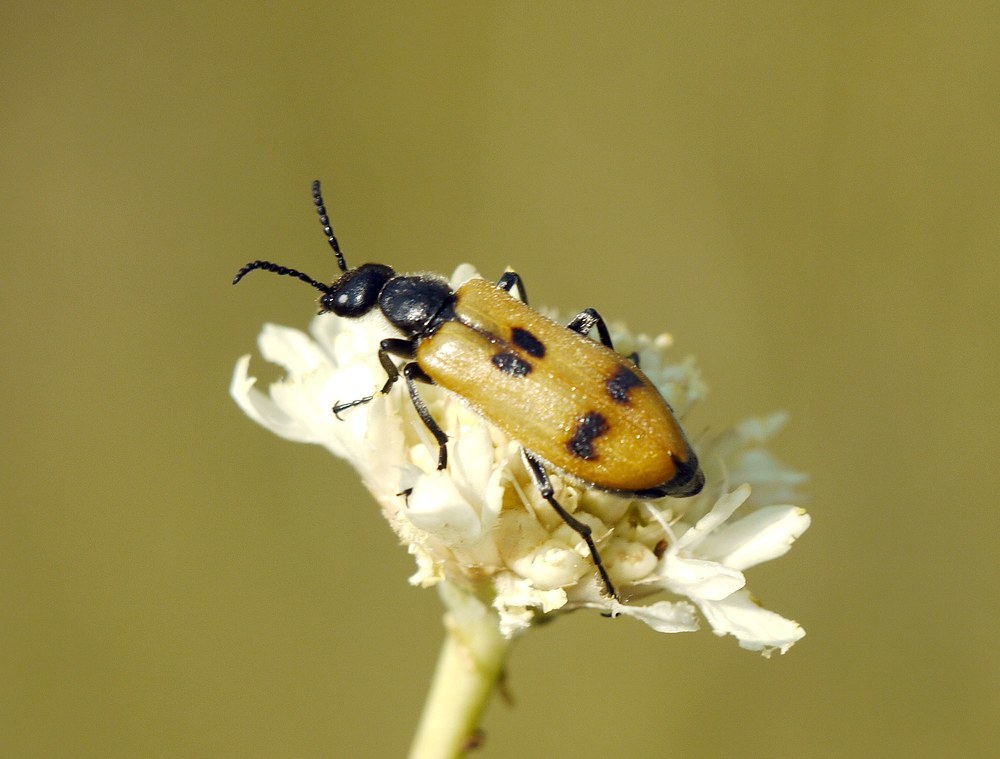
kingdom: Animalia
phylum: Arthropoda
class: Insecta
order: Coleoptera
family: Meloidae
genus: Lydus
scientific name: Lydus trimaculatus
